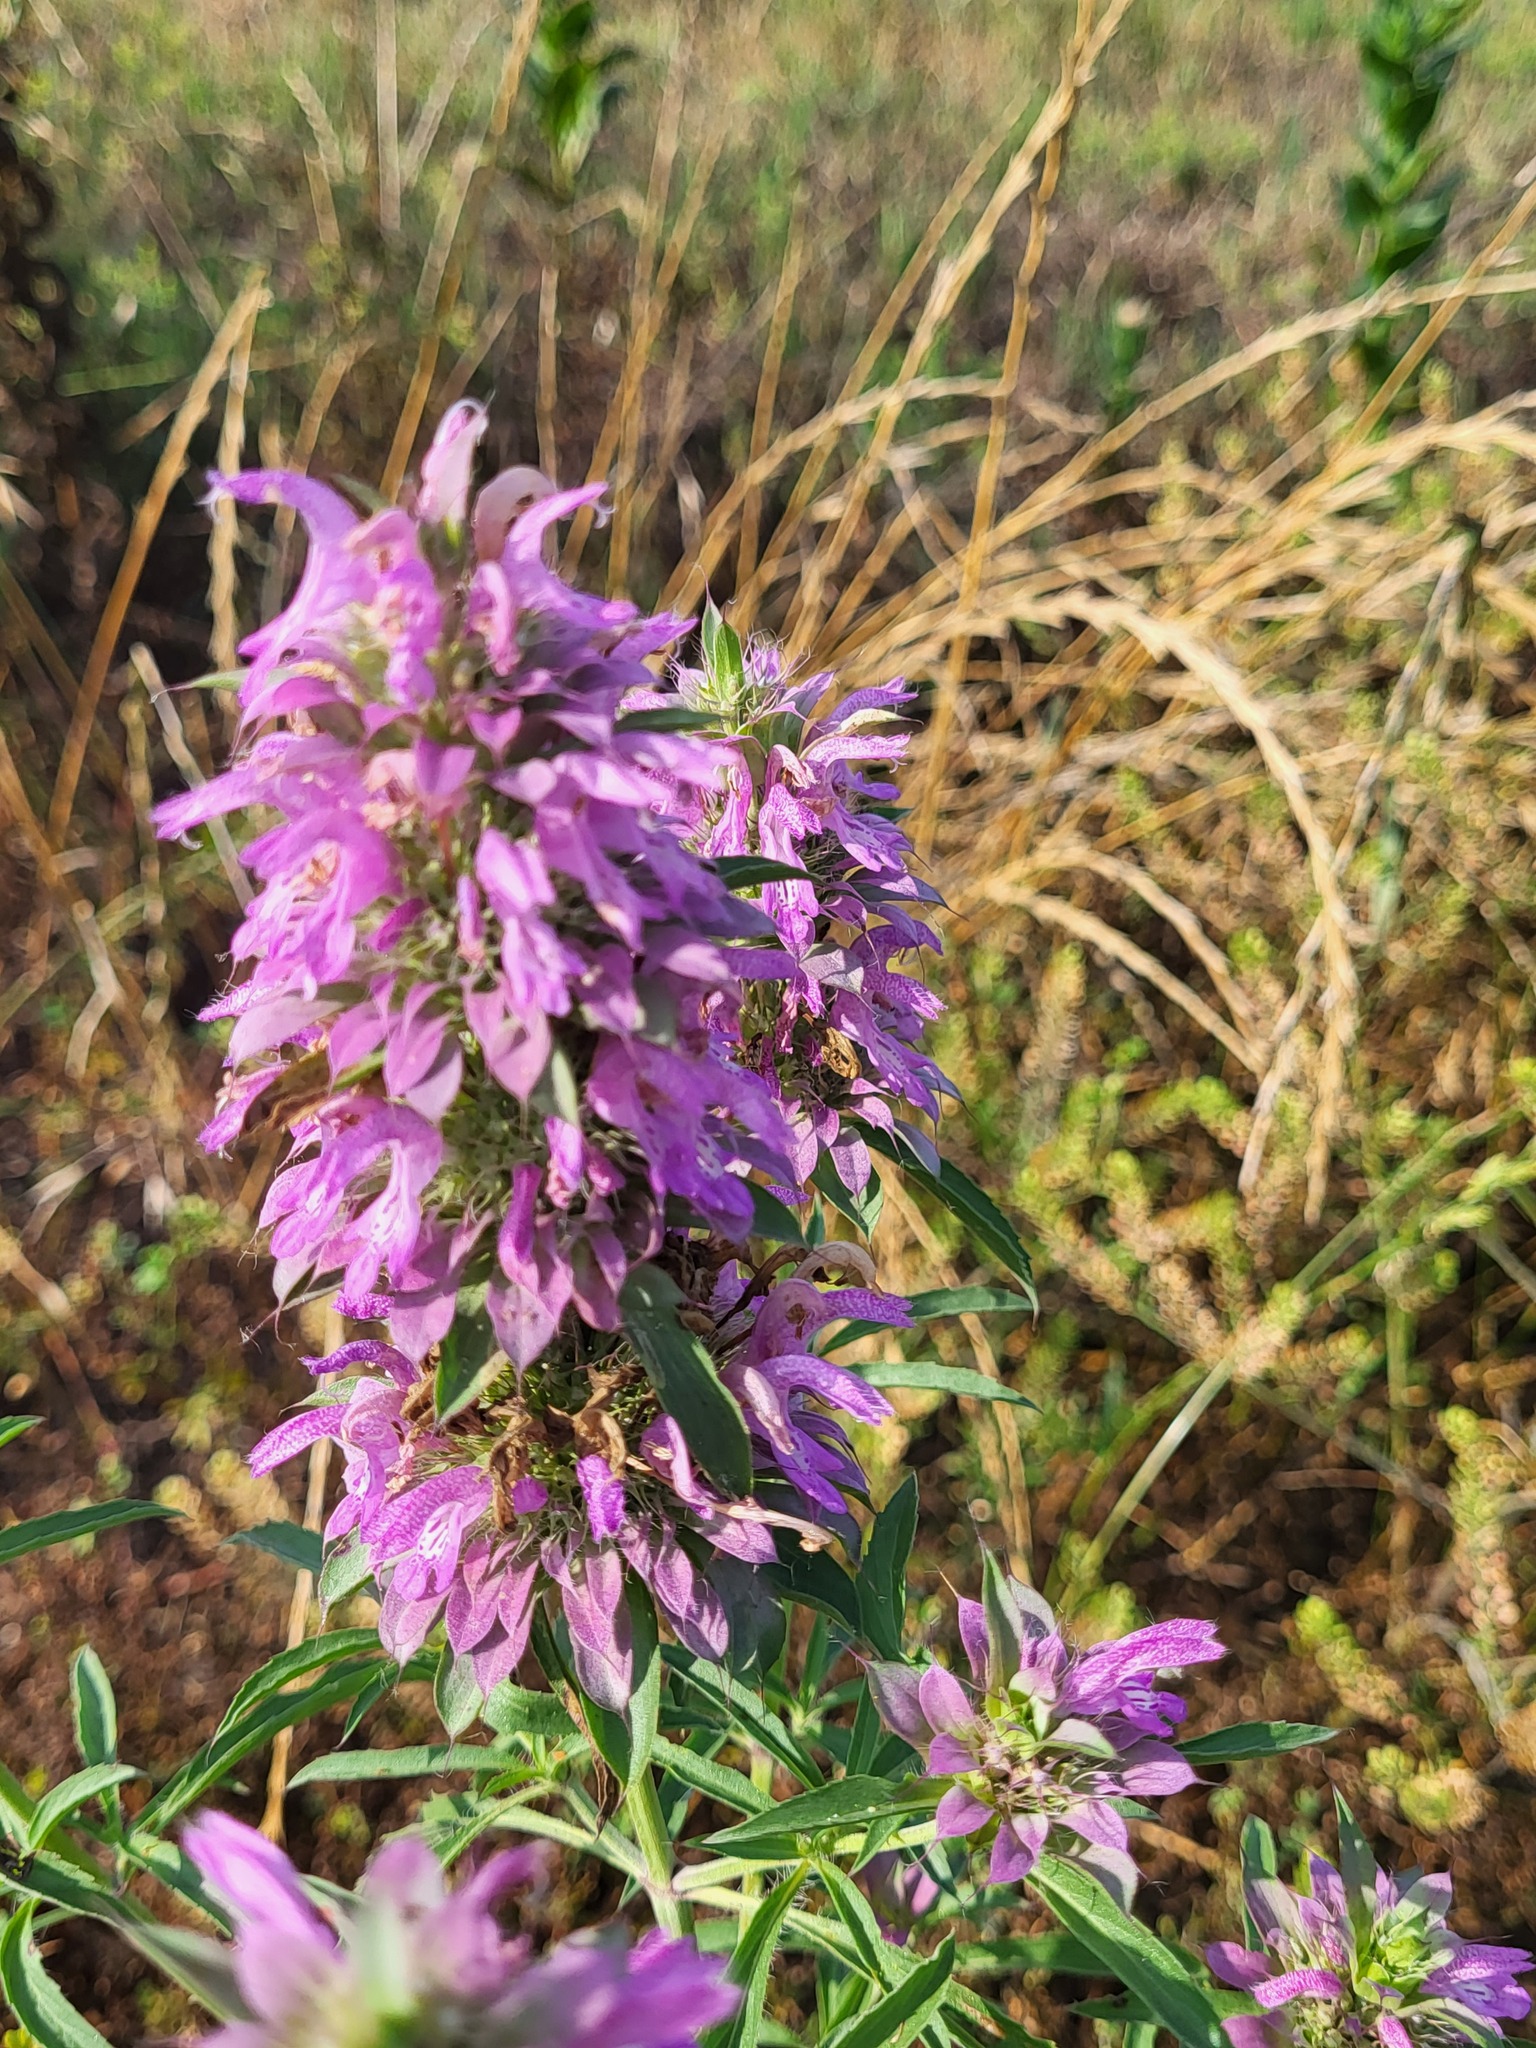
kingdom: Plantae
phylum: Tracheophyta
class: Magnoliopsida
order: Lamiales
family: Lamiaceae
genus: Monarda
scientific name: Monarda citriodora
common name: Lemon beebalm
